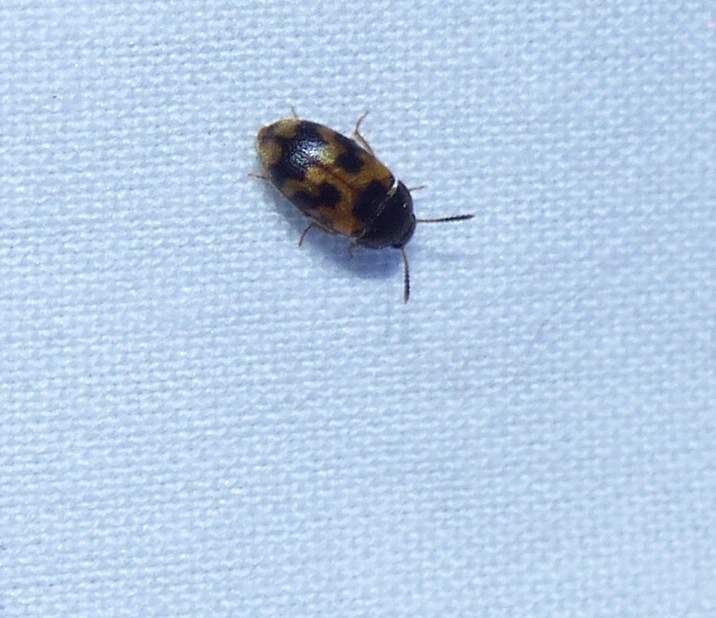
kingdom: Animalia
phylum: Arthropoda
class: Insecta
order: Coleoptera
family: Mycetophagidae
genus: Mycetophagus
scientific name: Mycetophagus flexuosus
